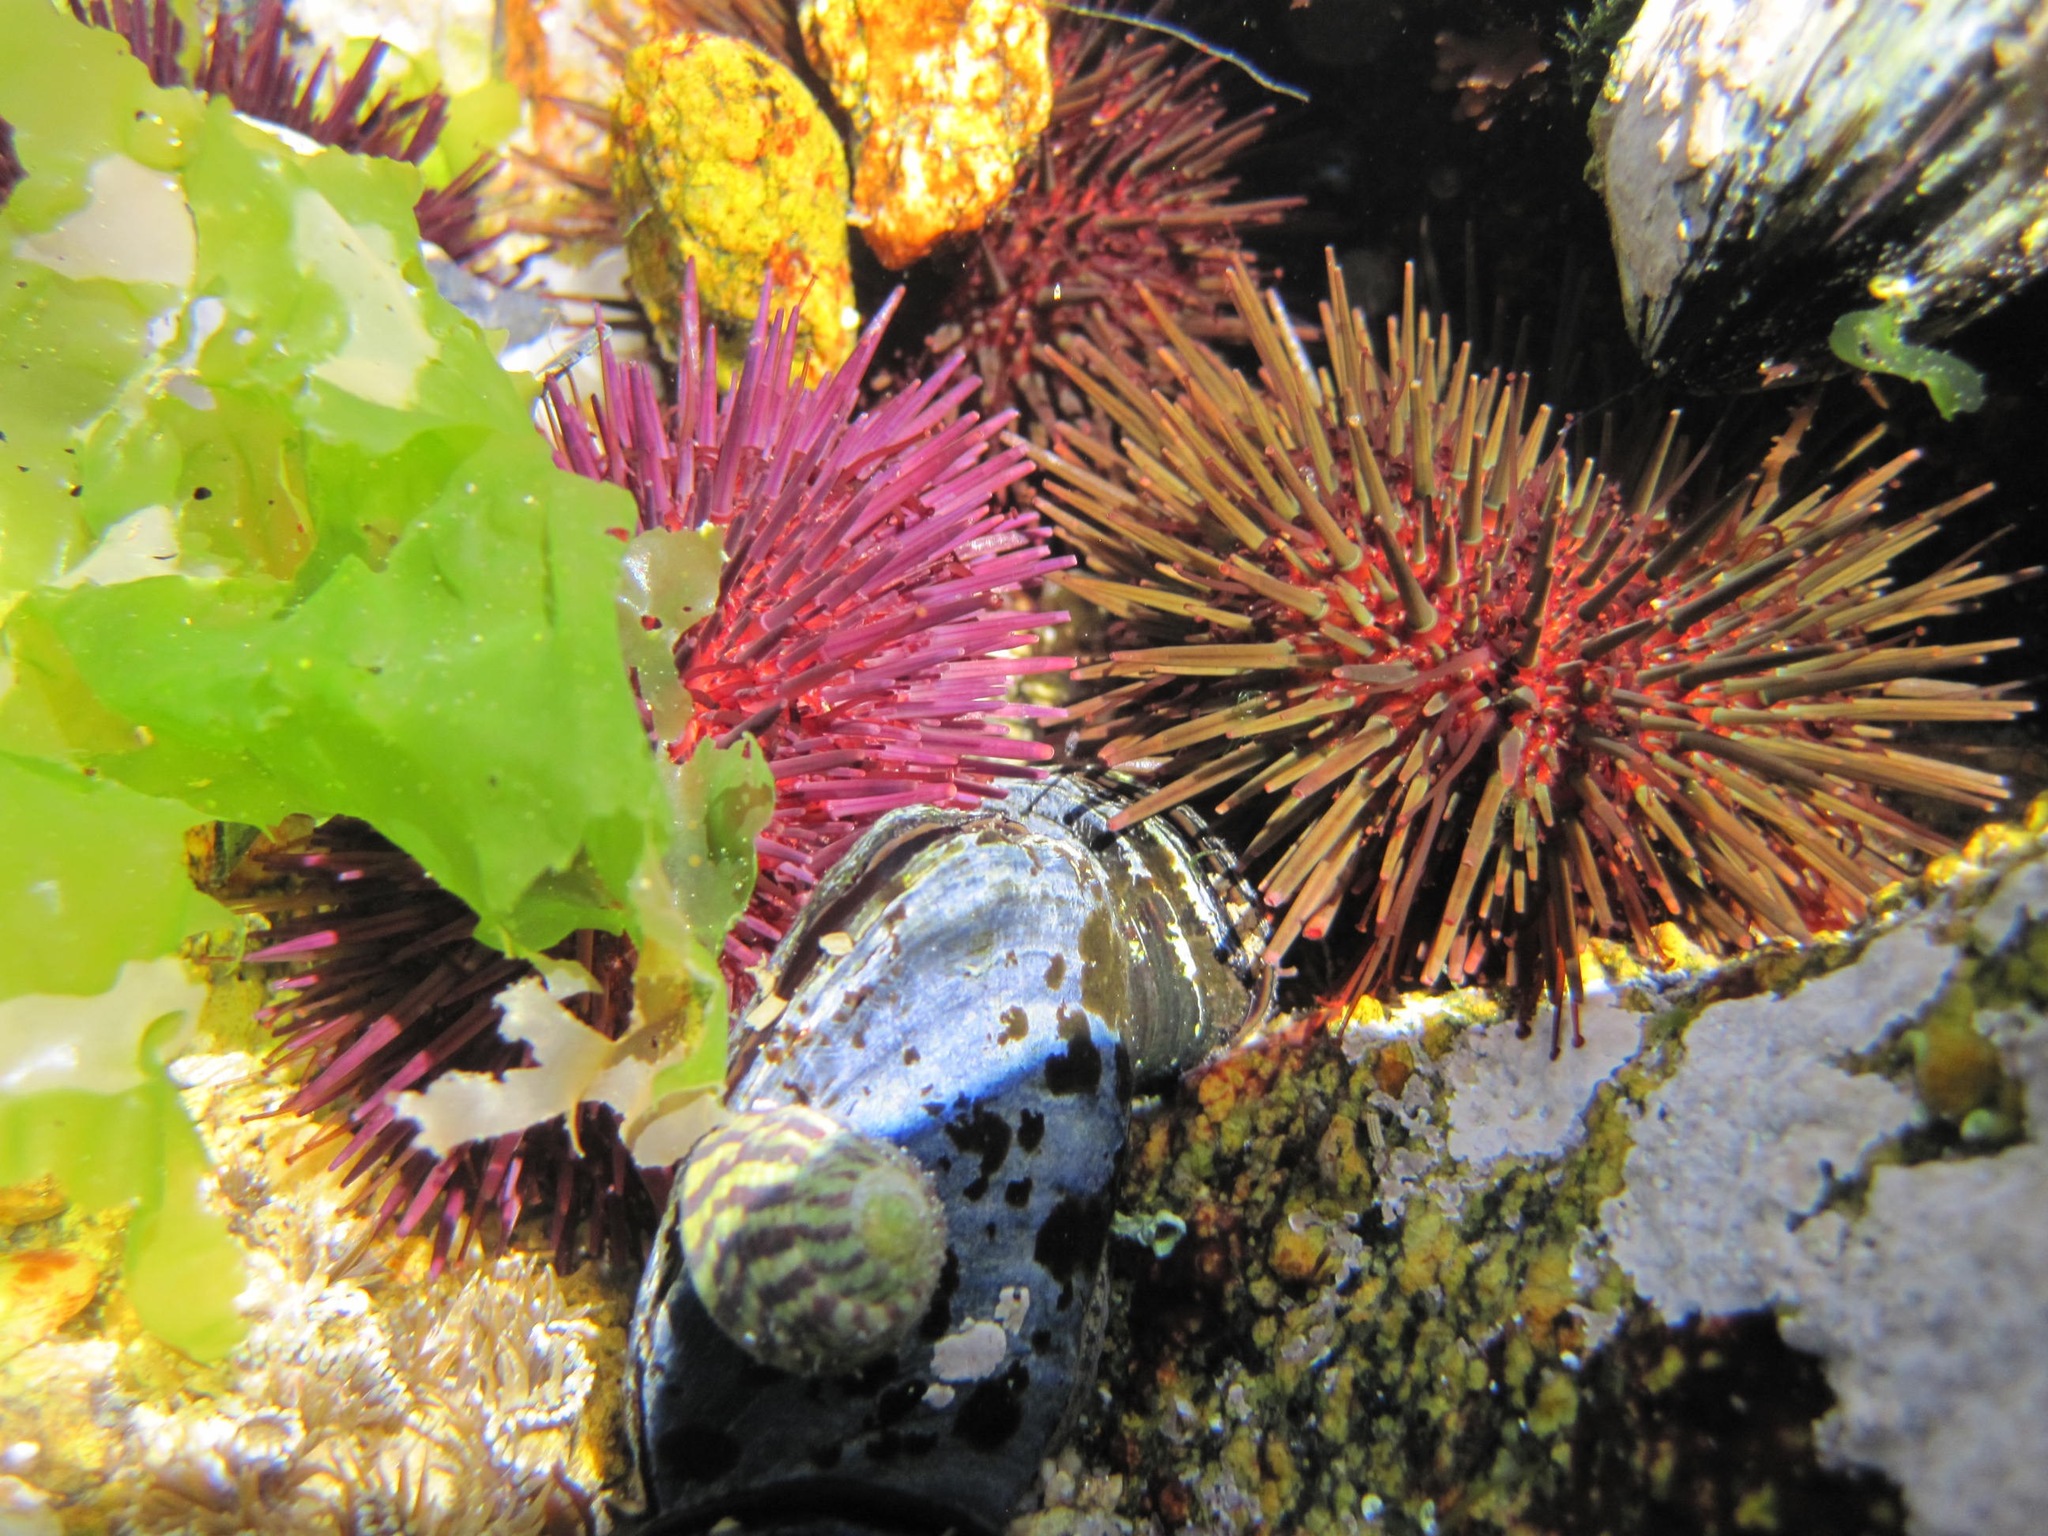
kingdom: Animalia
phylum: Echinodermata
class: Echinoidea
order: Camarodonta
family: Parechinidae
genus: Paracentrotus
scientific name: Paracentrotus lividus
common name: Purple sea urchin
